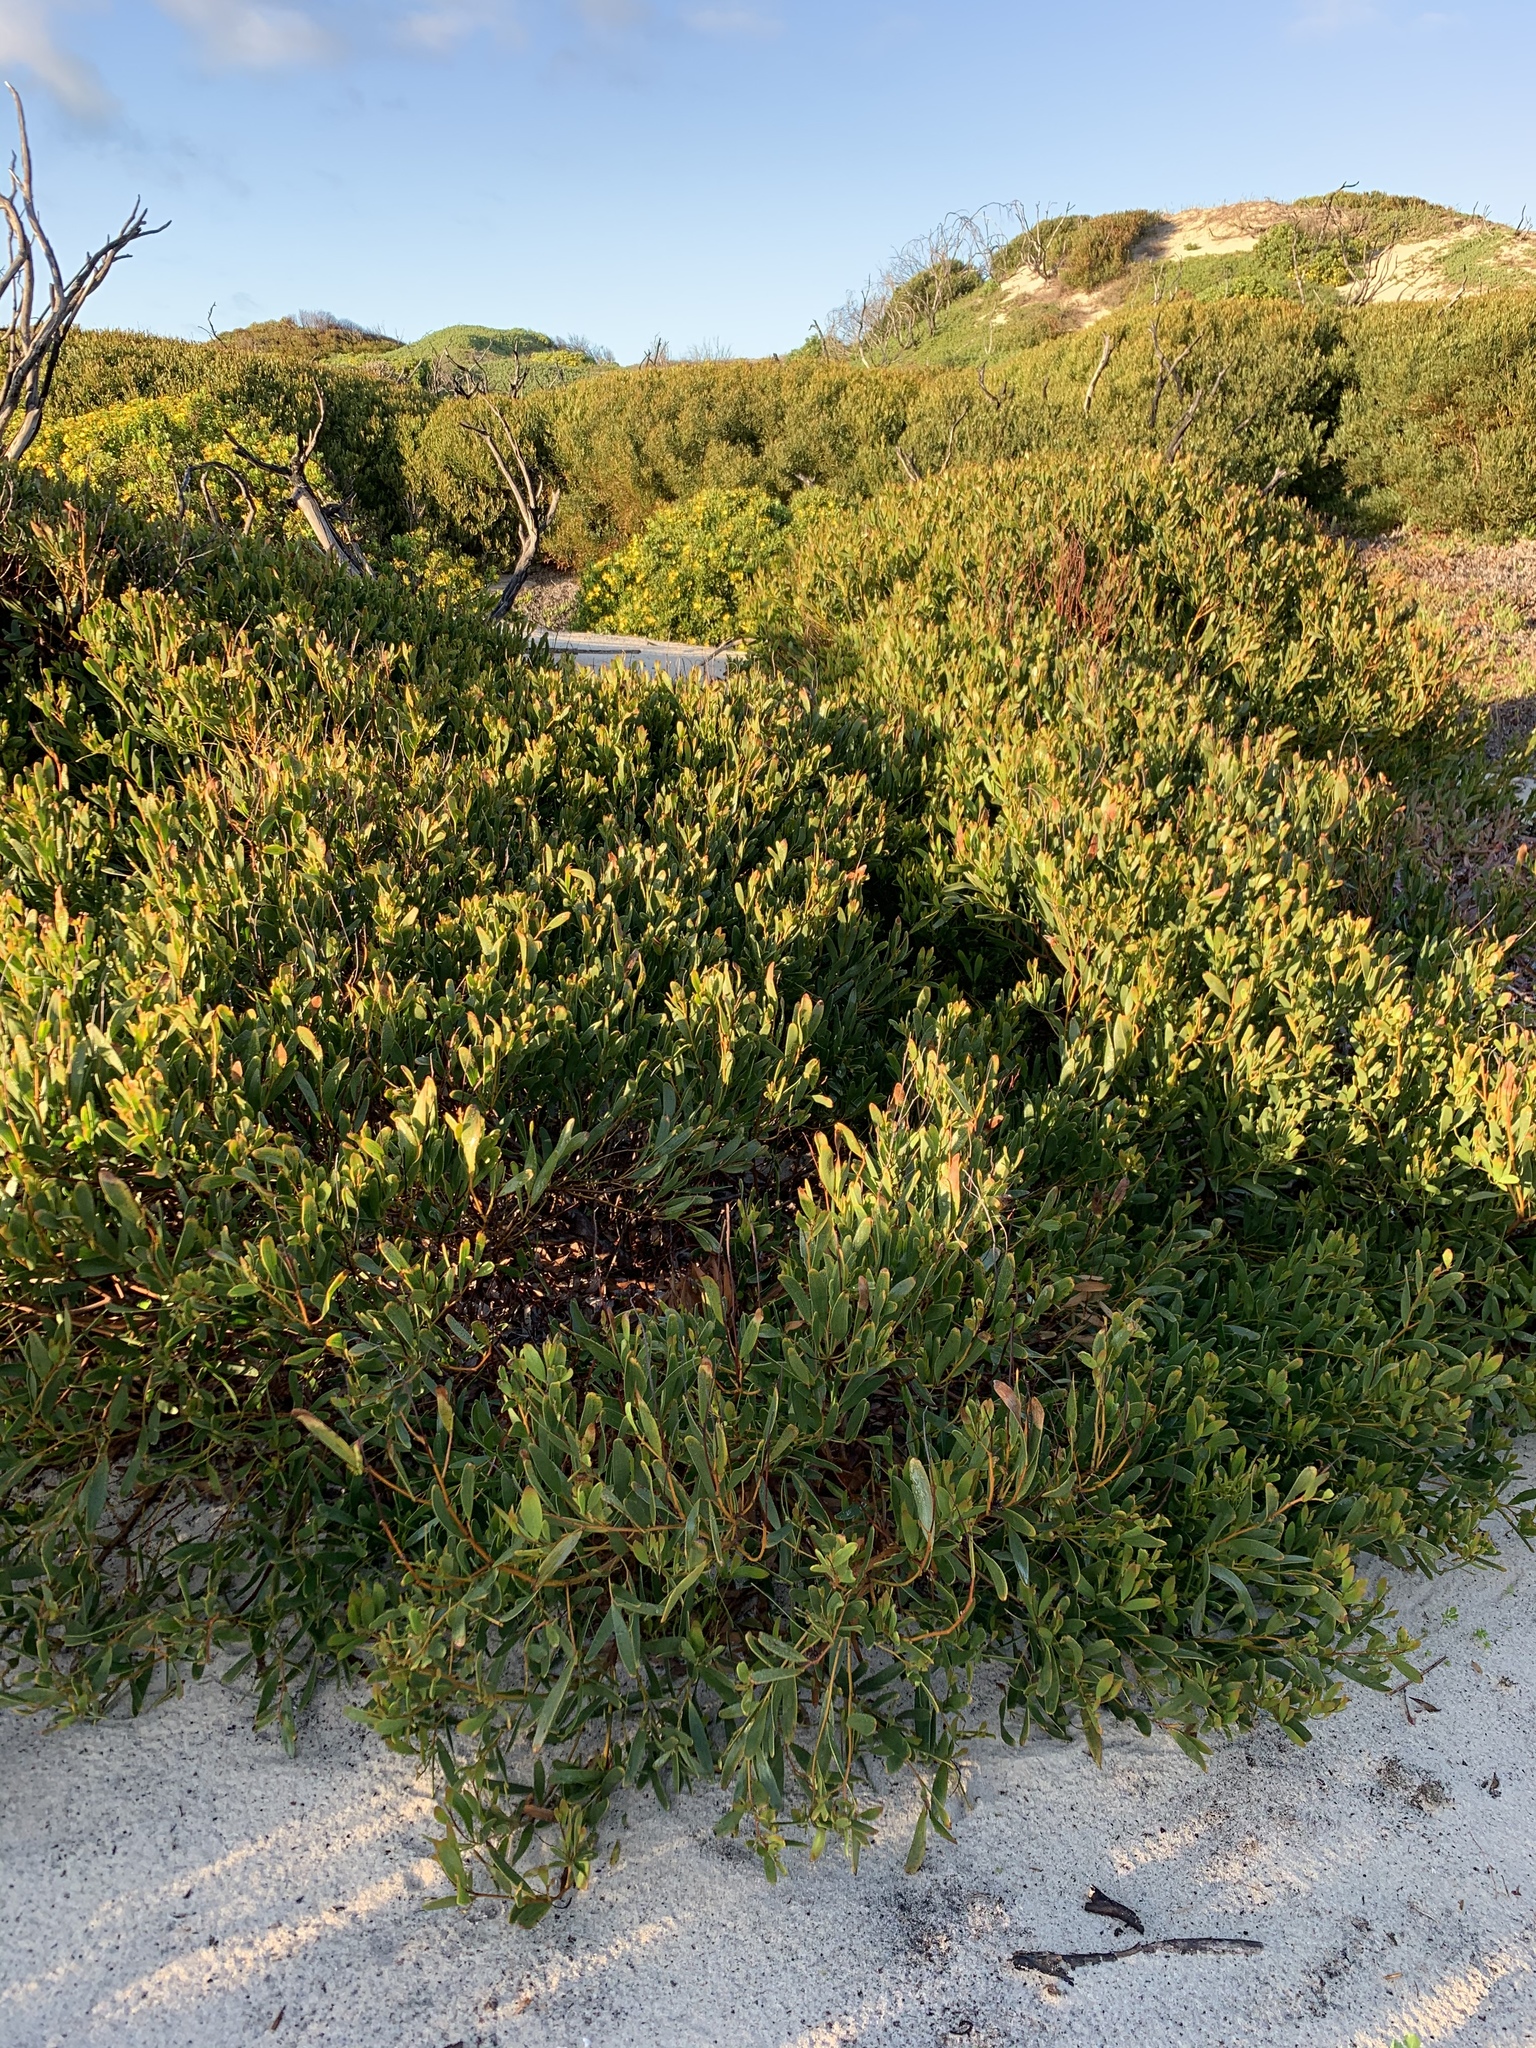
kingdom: Plantae
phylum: Tracheophyta
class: Magnoliopsida
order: Fabales
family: Fabaceae
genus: Acacia
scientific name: Acacia cyclops
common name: Coastal wattle
